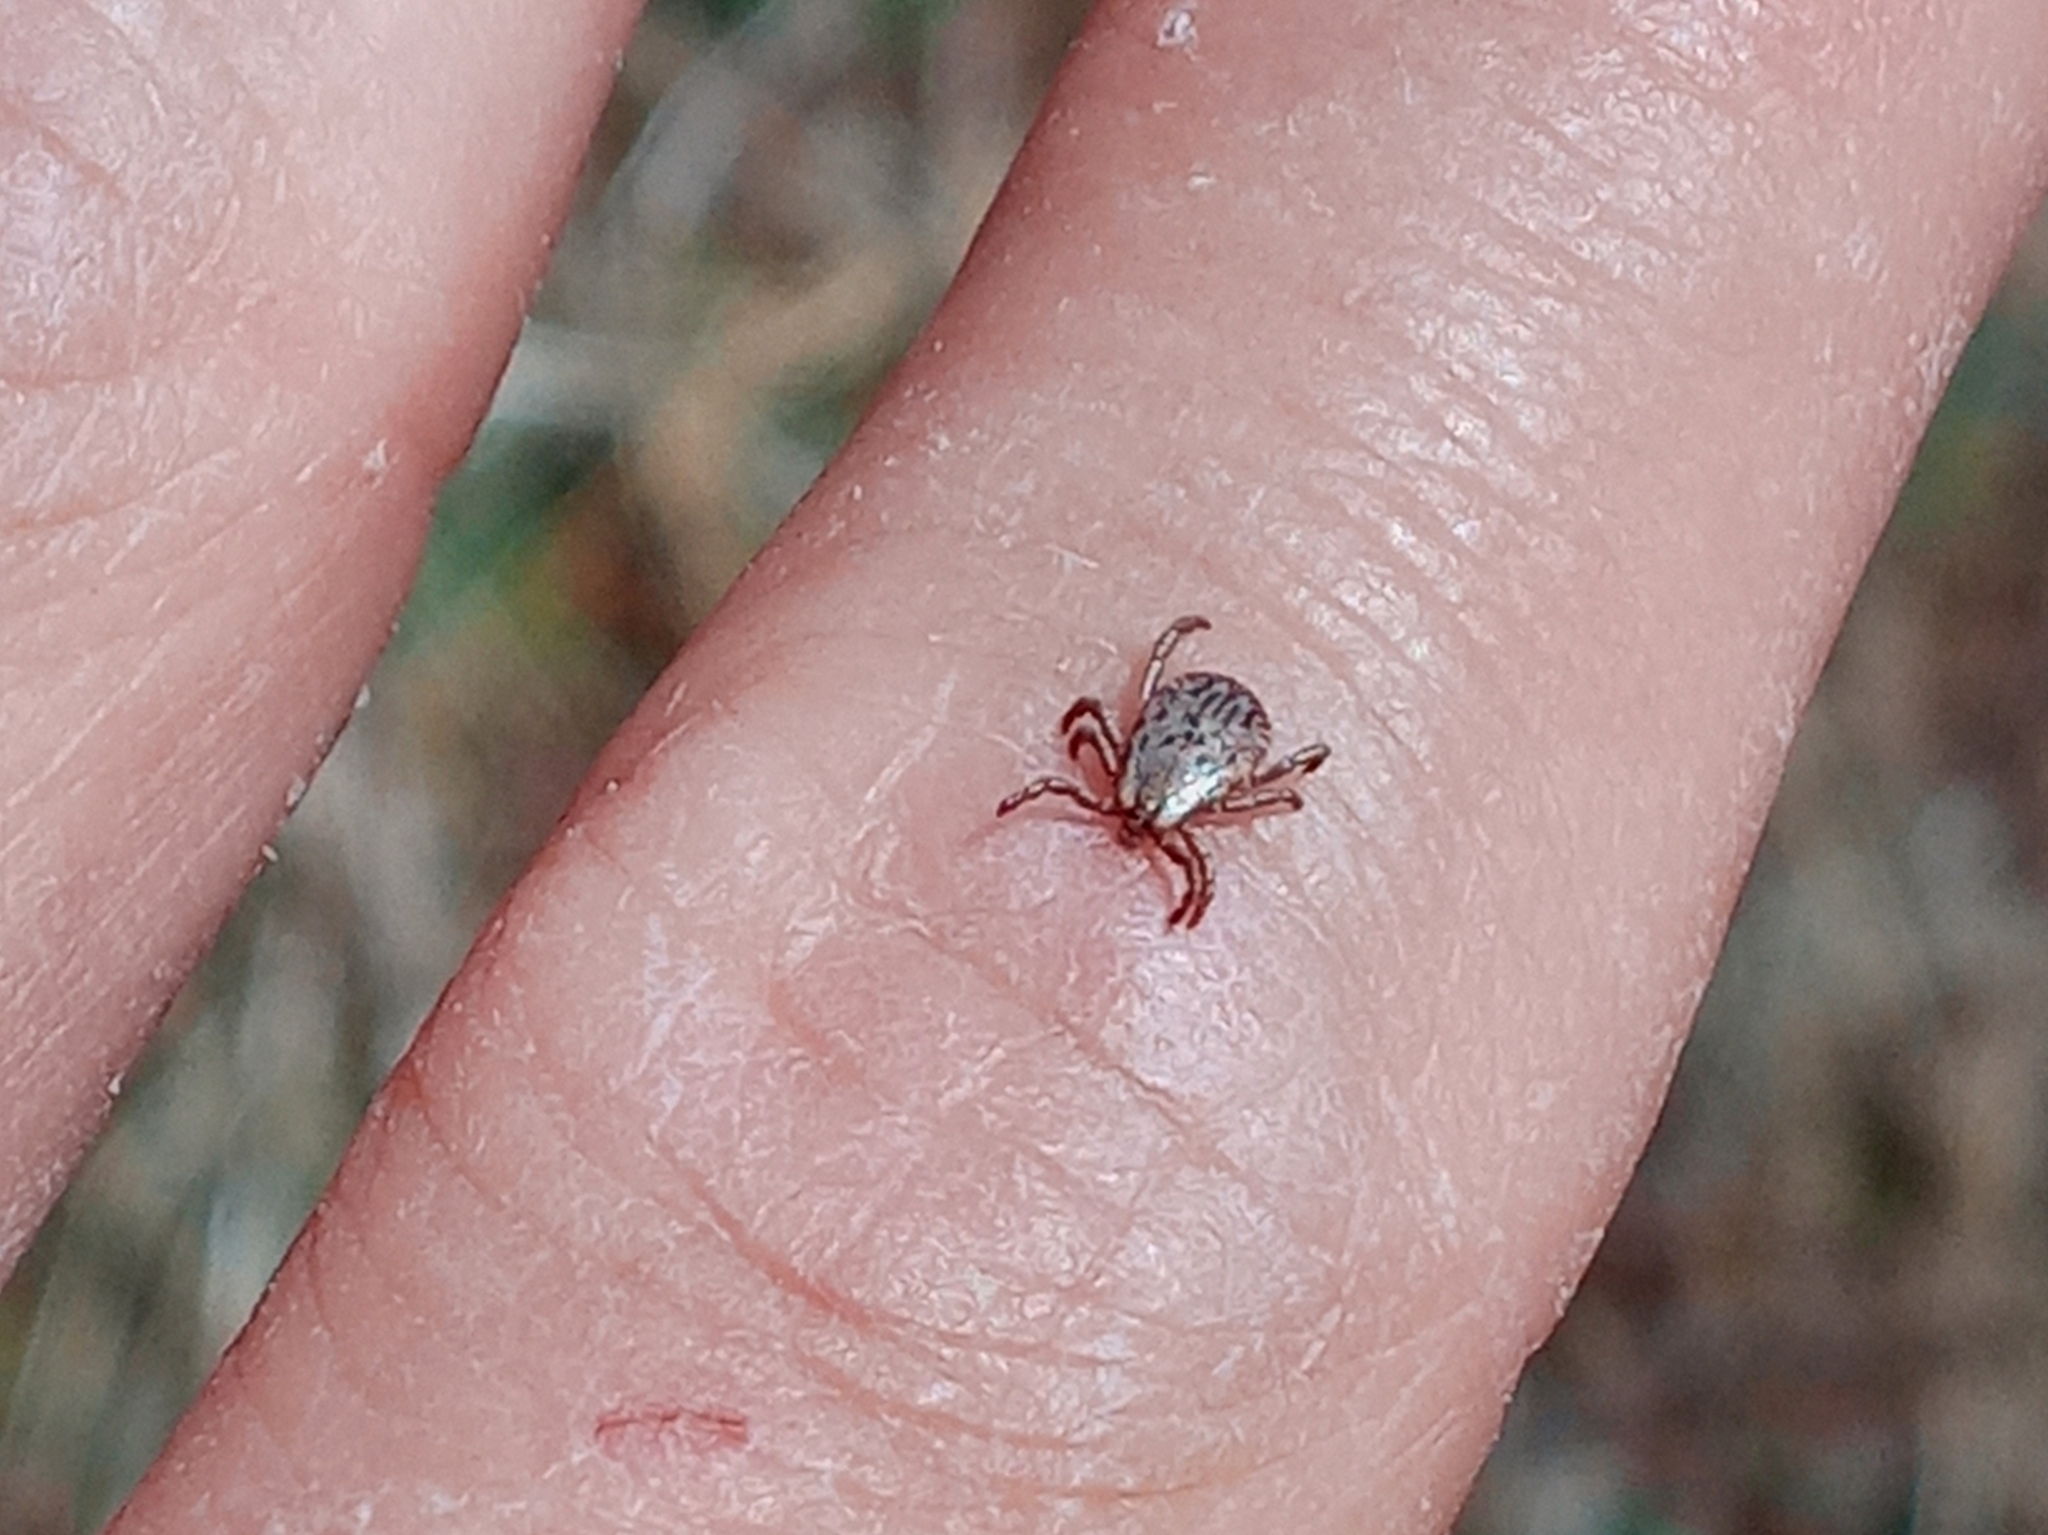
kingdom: Animalia
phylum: Arthropoda
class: Arachnida
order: Ixodida
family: Ixodidae
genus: Dermacentor
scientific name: Dermacentor occidentalis
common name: Net tick
